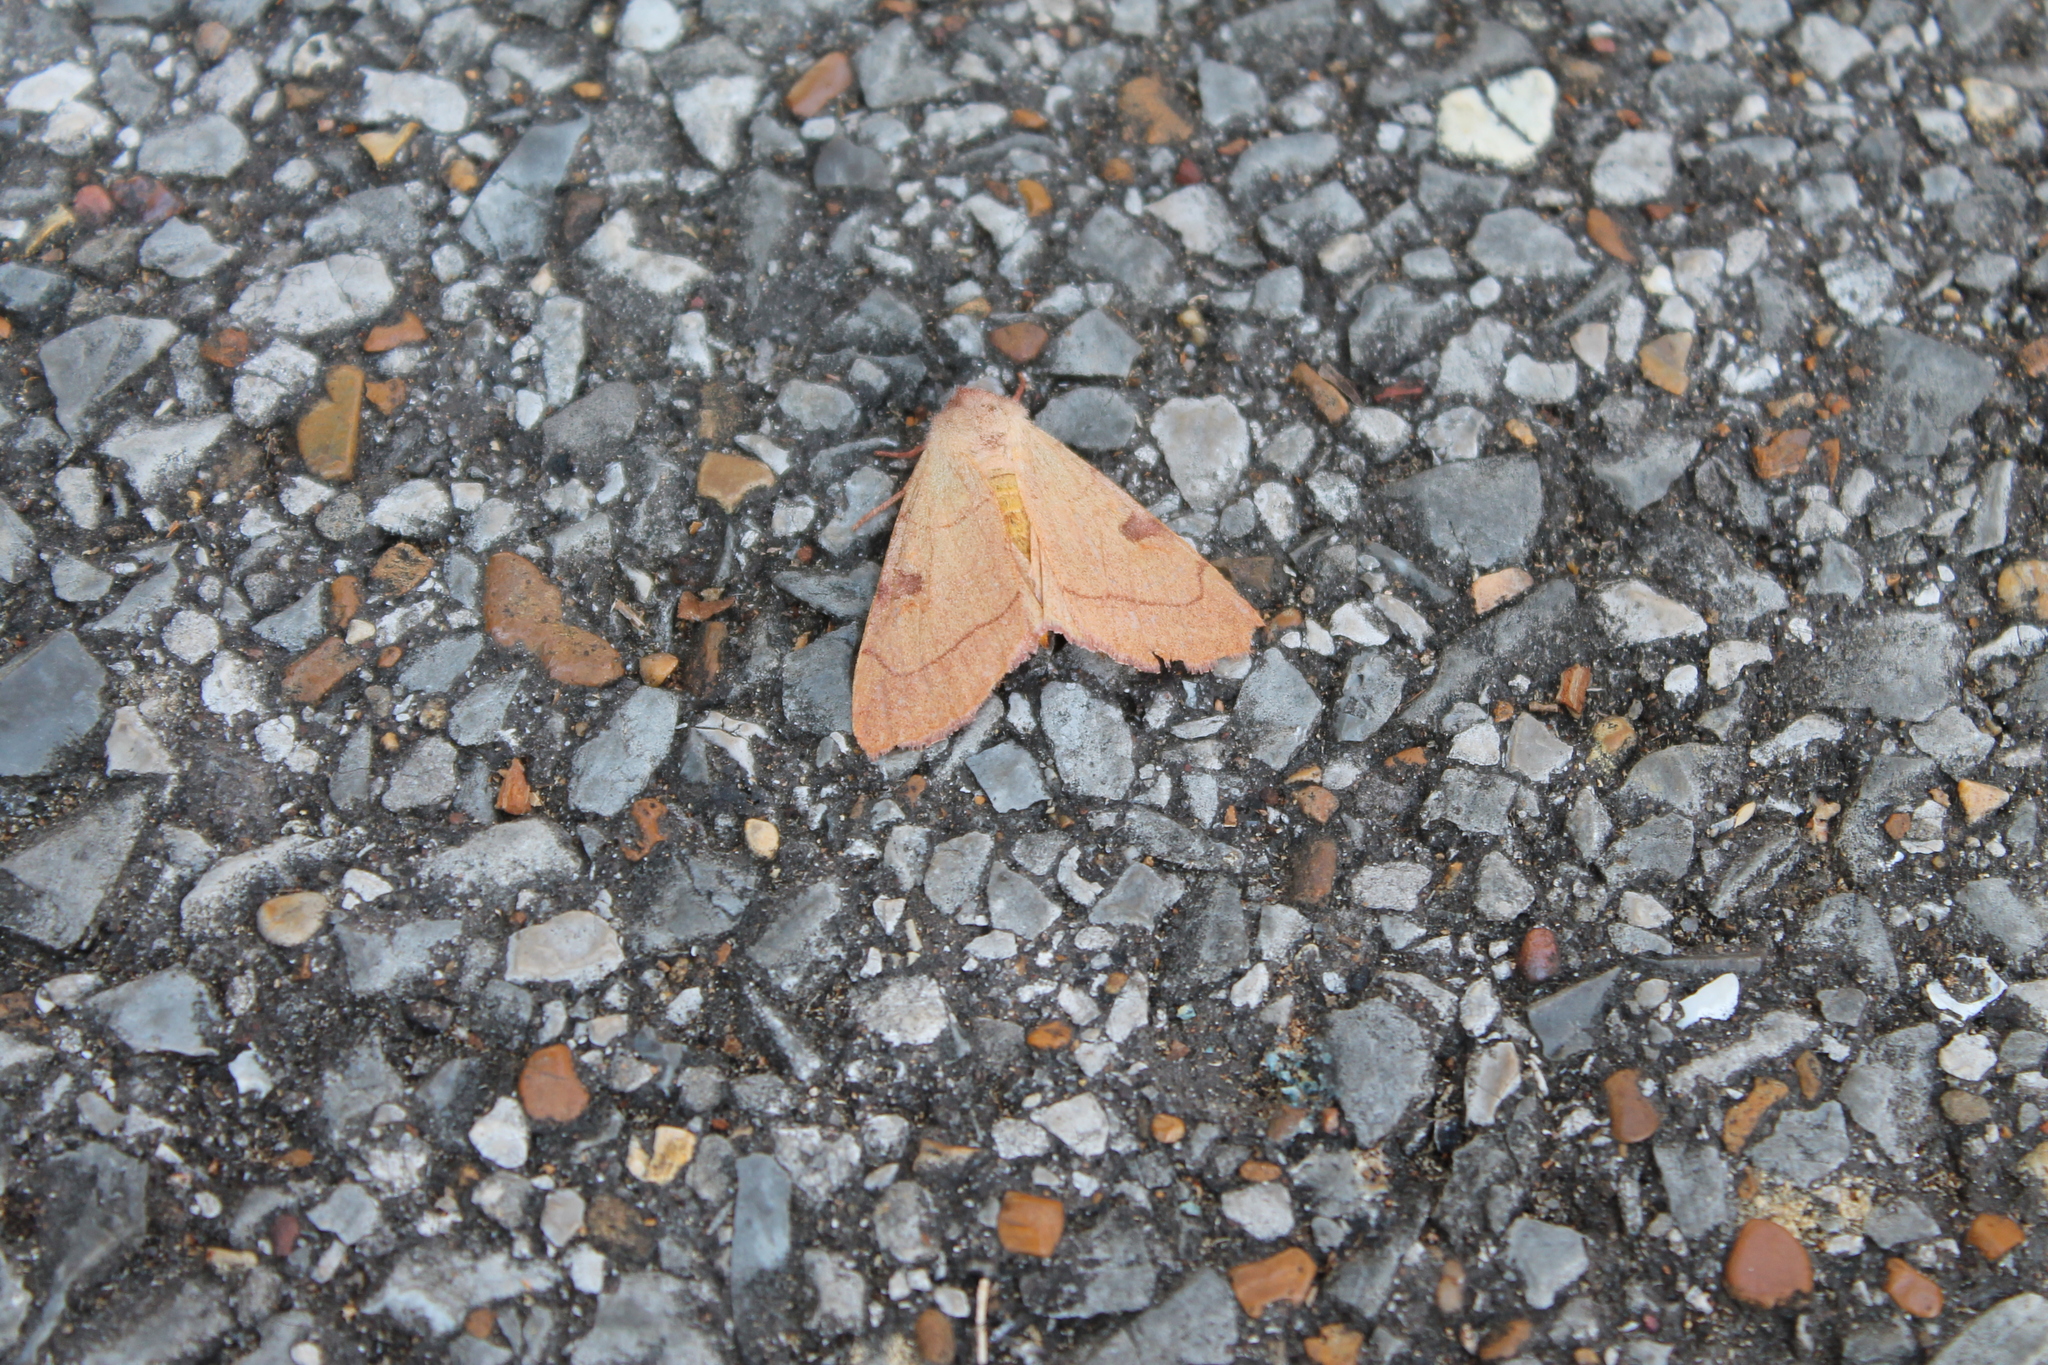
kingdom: Animalia
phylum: Arthropoda
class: Insecta
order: Lepidoptera
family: Noctuidae
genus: Choephora
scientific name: Choephora fungorum
